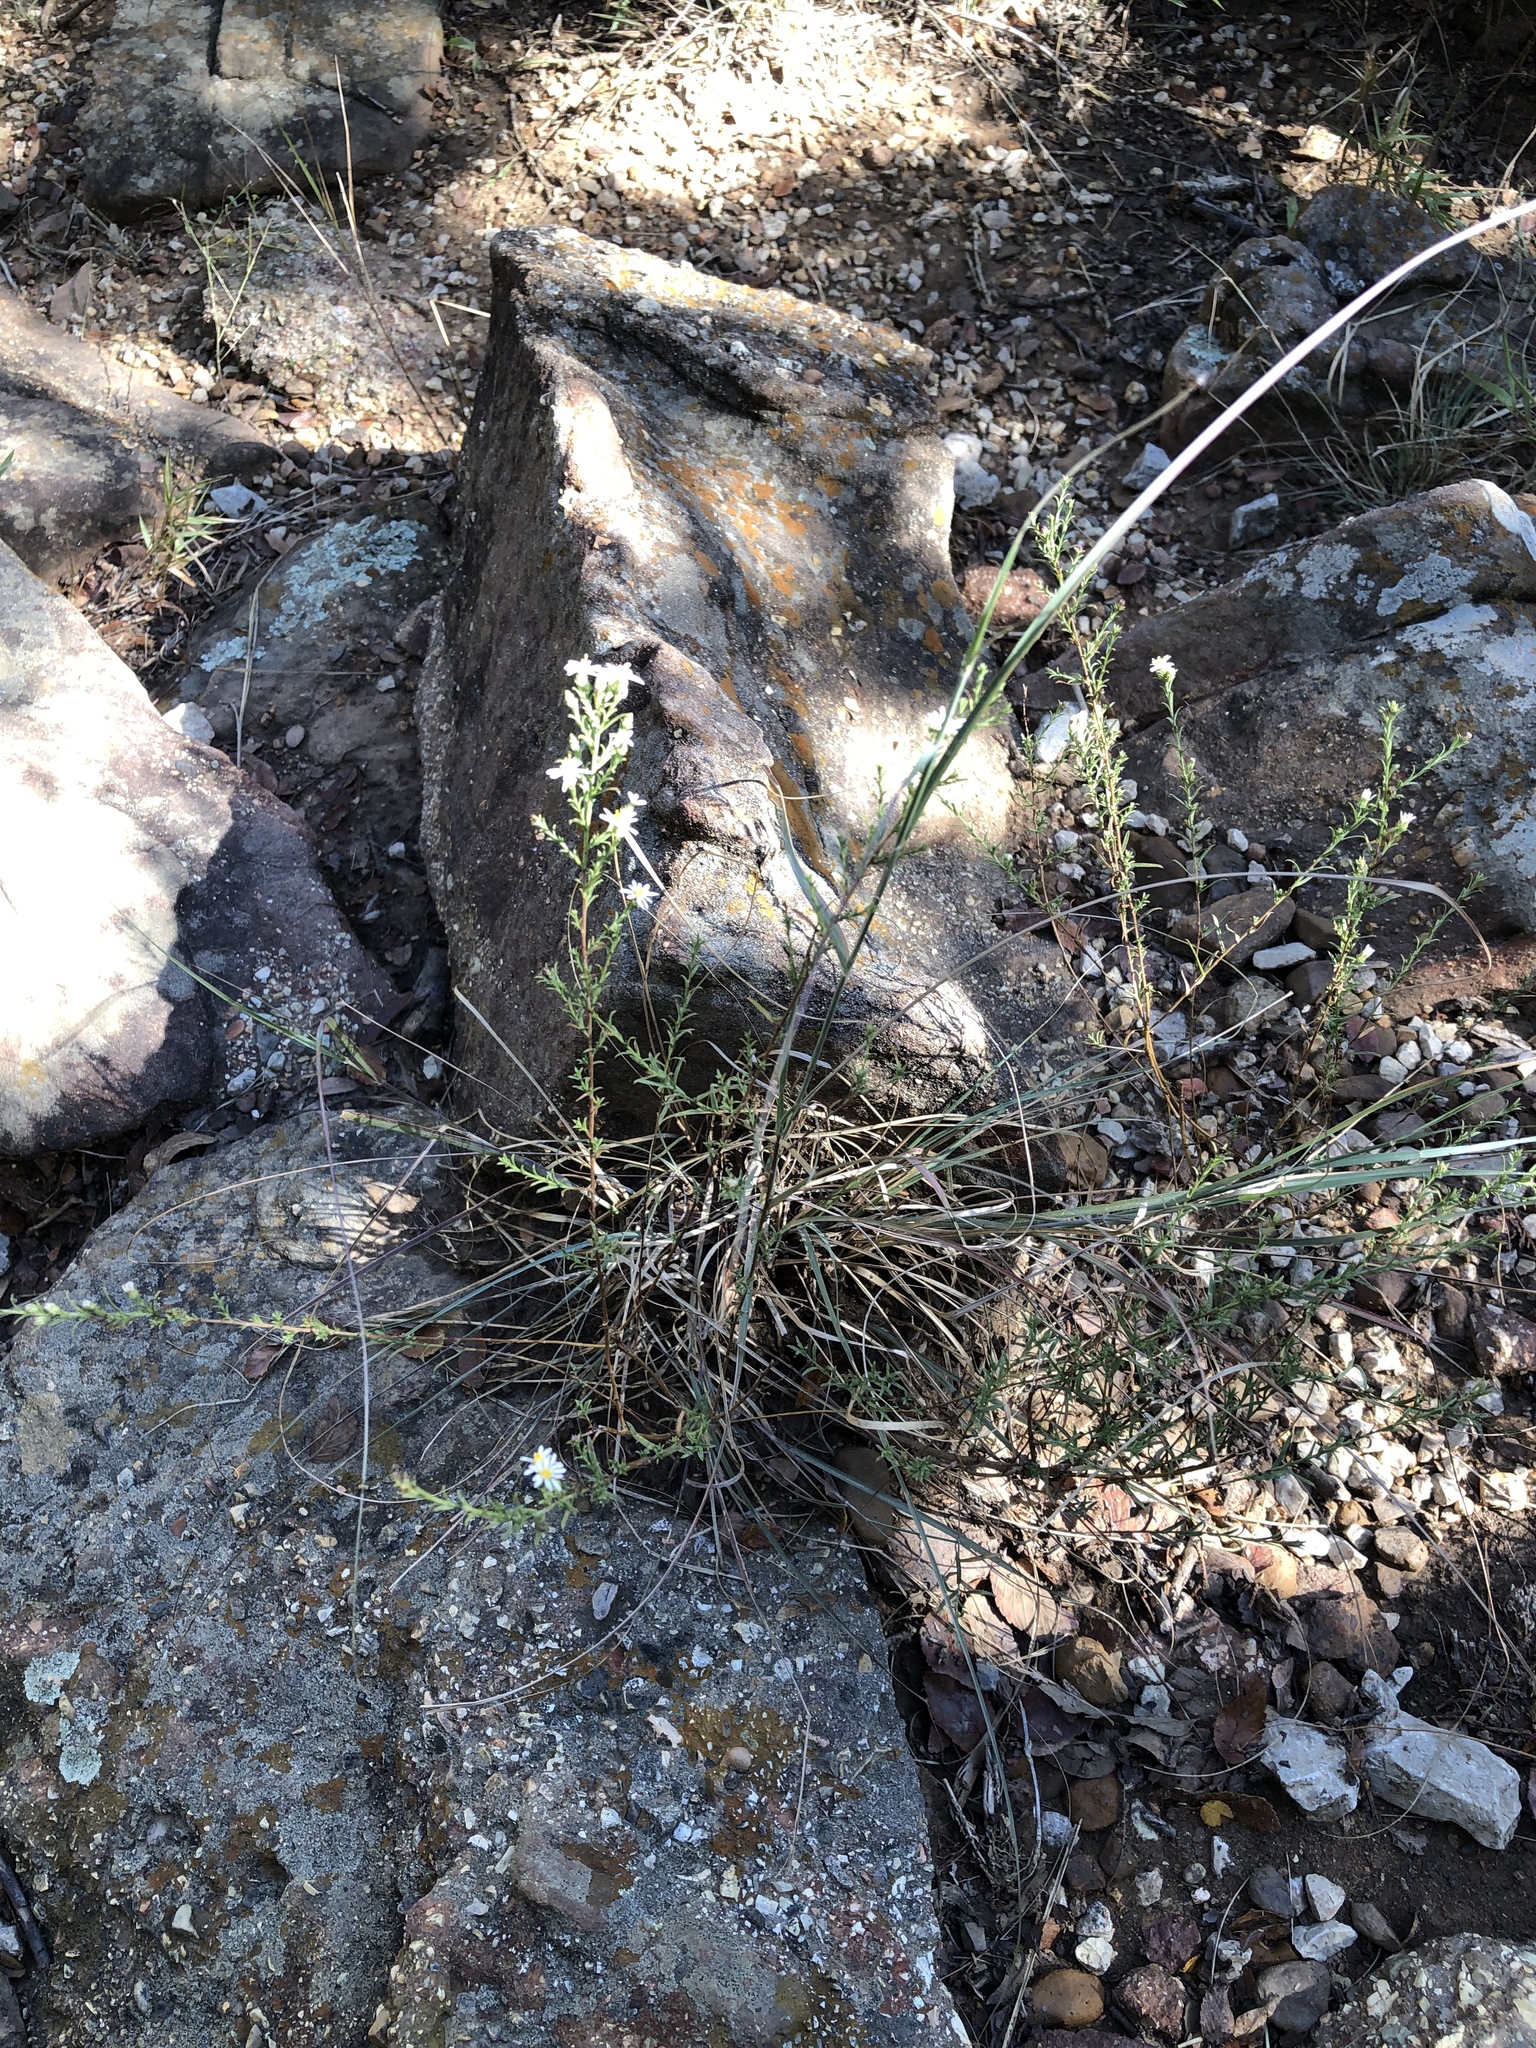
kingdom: Plantae
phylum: Tracheophyta
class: Magnoliopsida
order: Asterales
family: Asteraceae
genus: Symphyotrichum
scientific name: Symphyotrichum ericoides
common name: Heath aster
